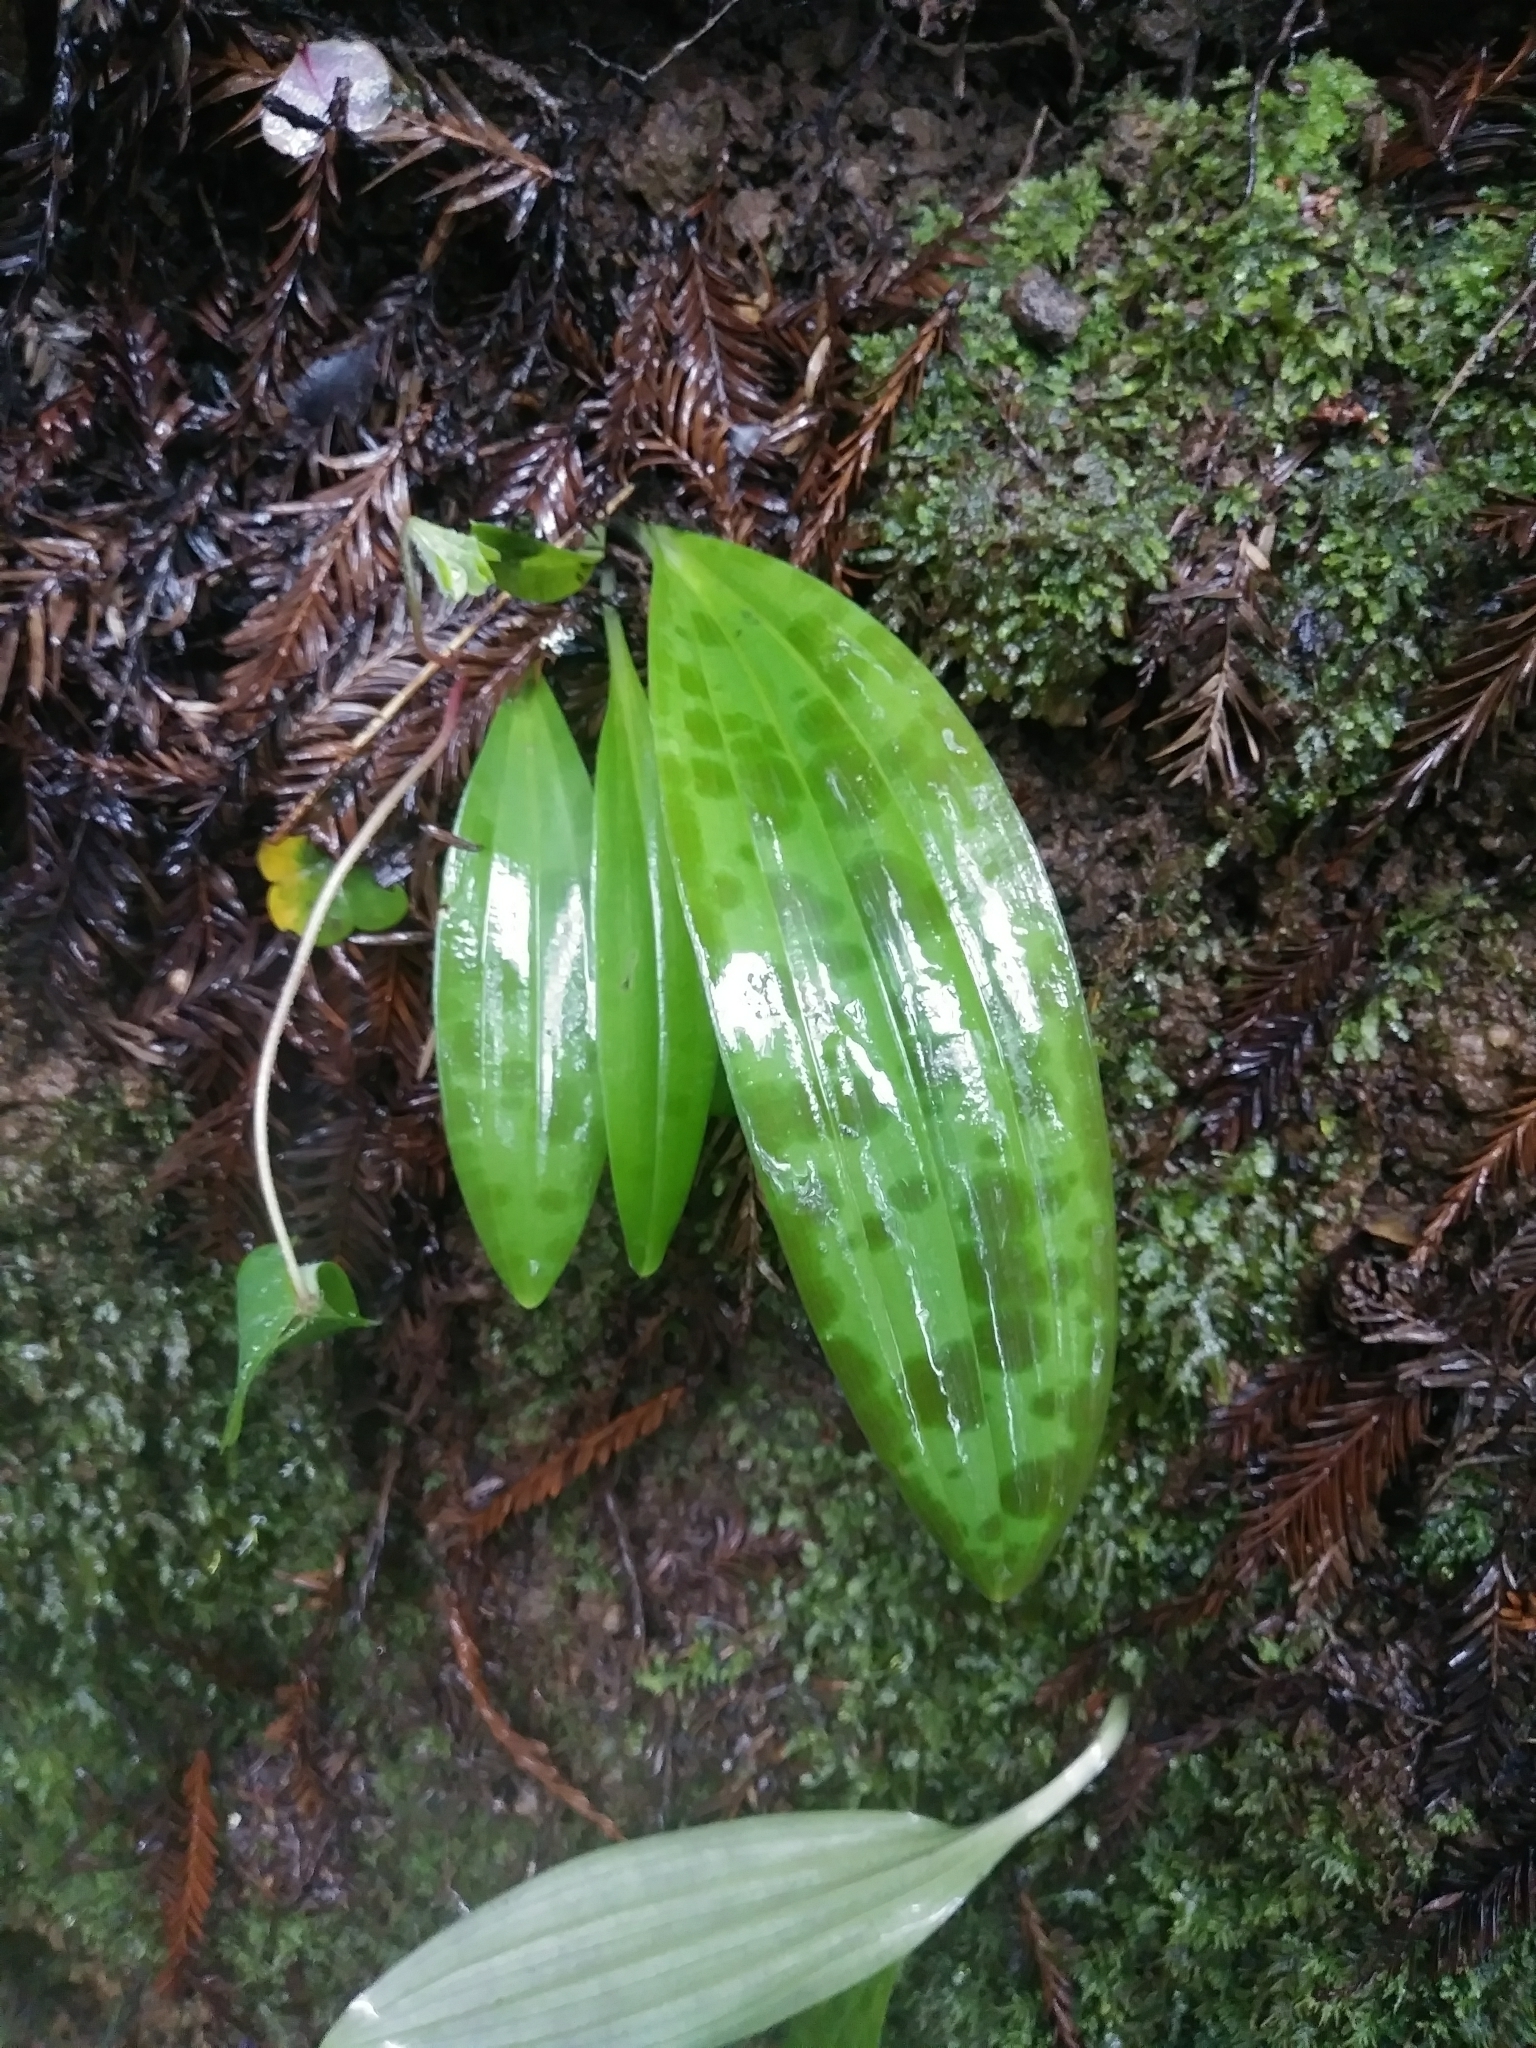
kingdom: Plantae
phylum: Tracheophyta
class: Liliopsida
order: Liliales
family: Liliaceae
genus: Scoliopus
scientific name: Scoliopus bigelovii
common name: Foetid adder's-tongue
